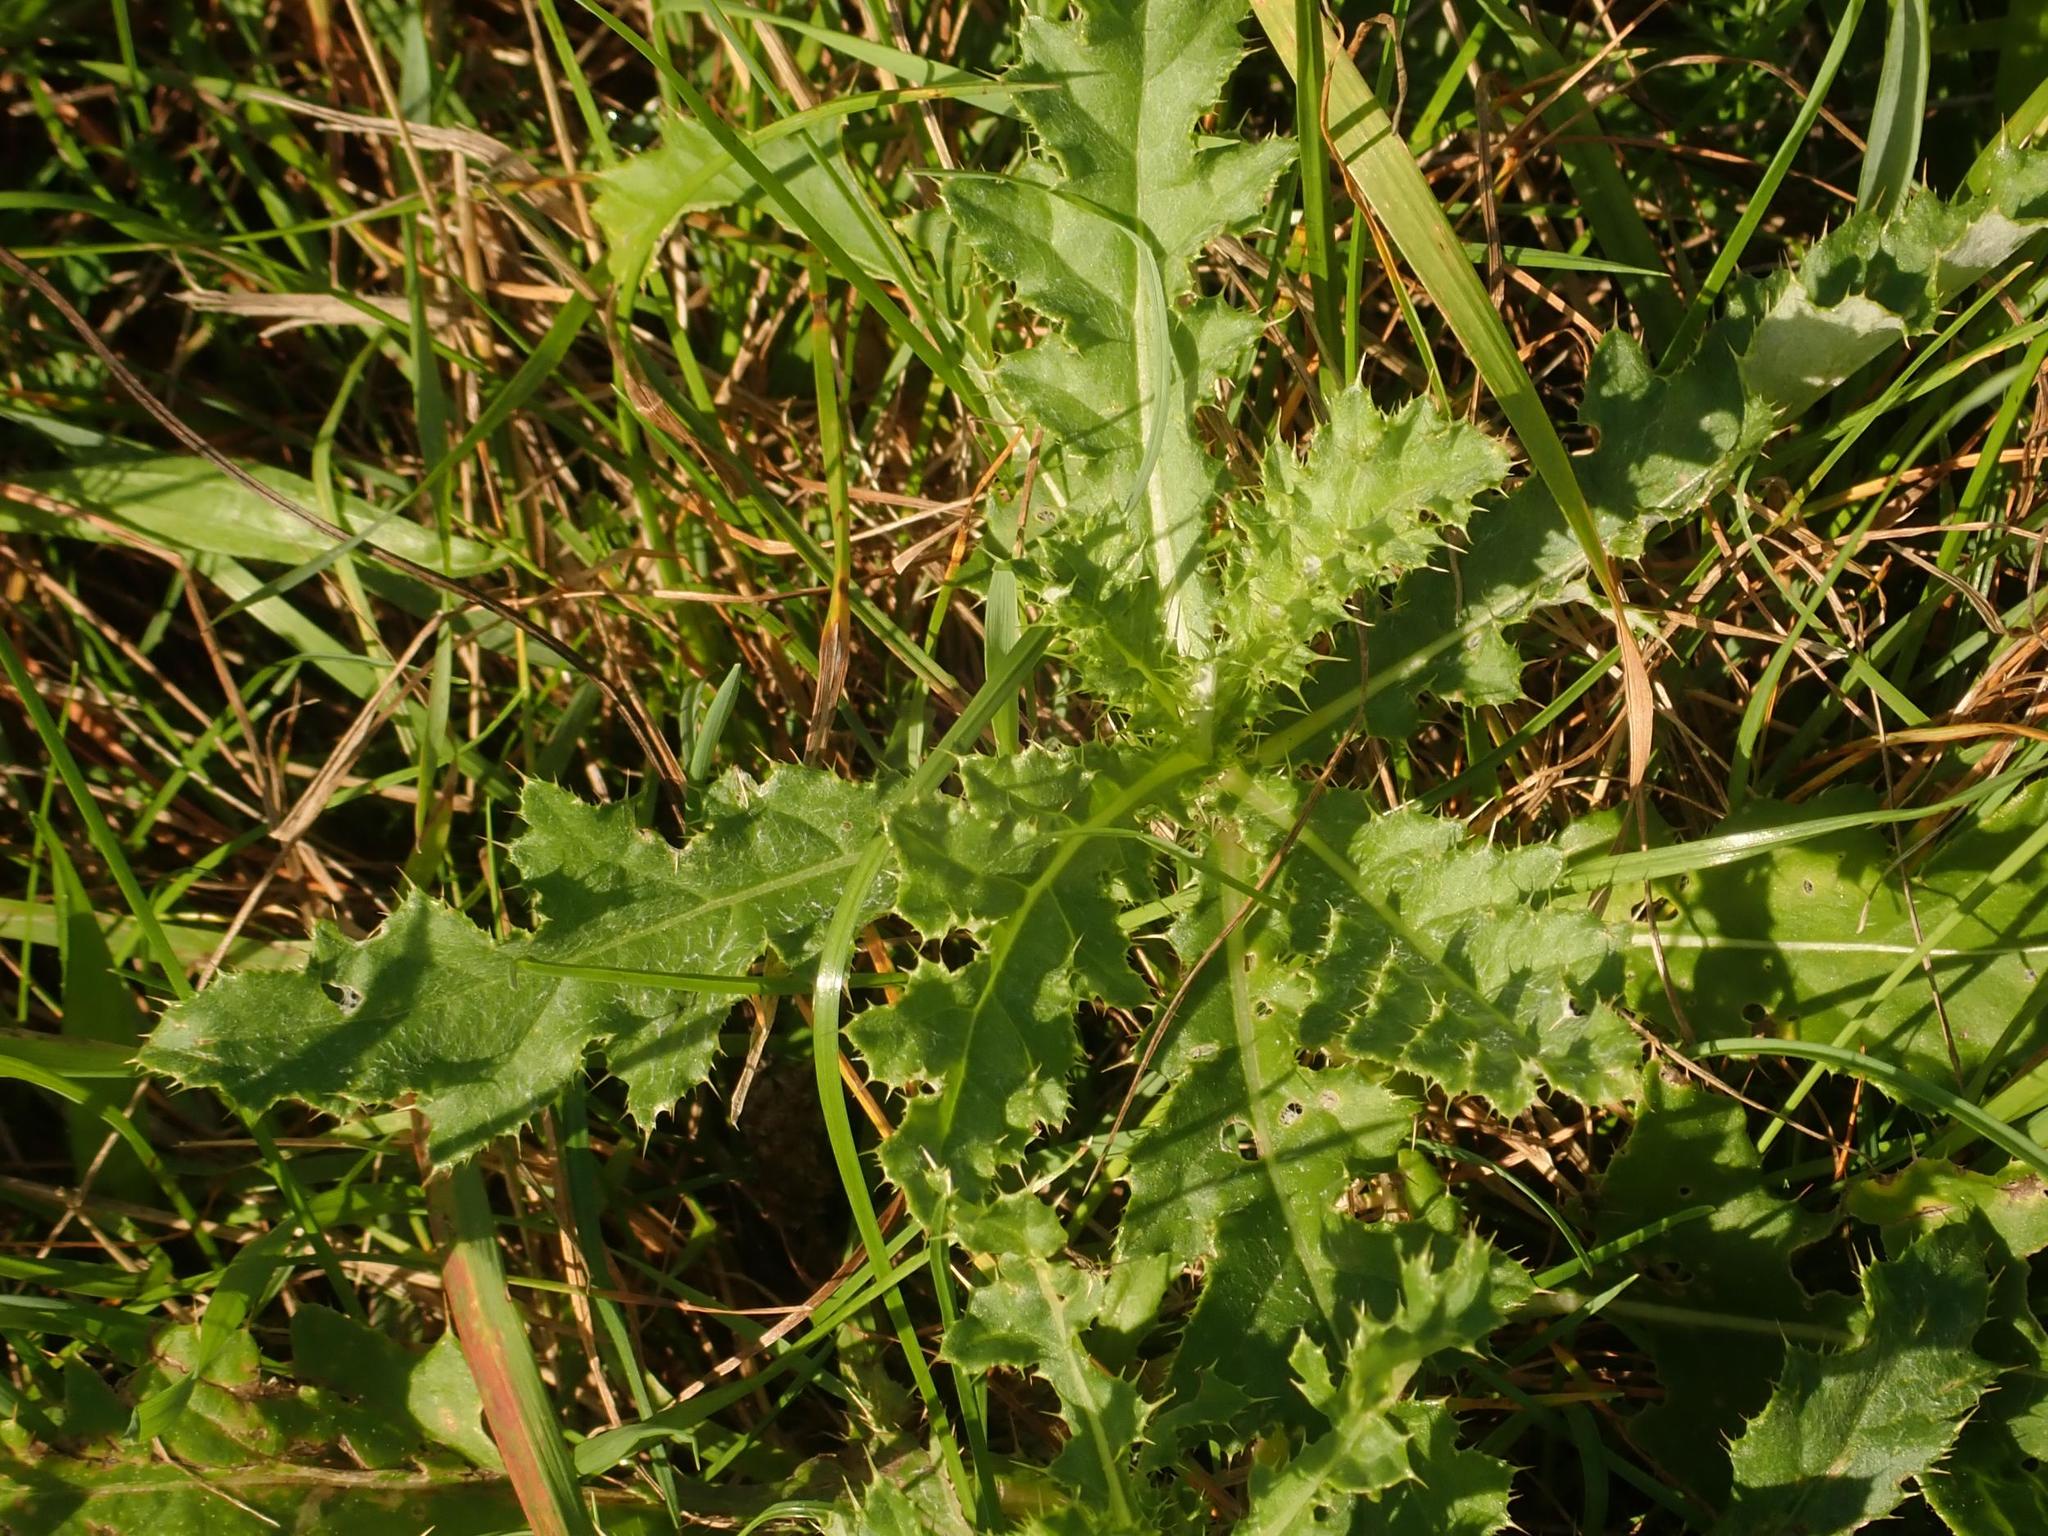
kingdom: Plantae
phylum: Tracheophyta
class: Magnoliopsida
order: Asterales
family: Asteraceae
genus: Cirsium
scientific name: Cirsium arvense
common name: Creeping thistle
